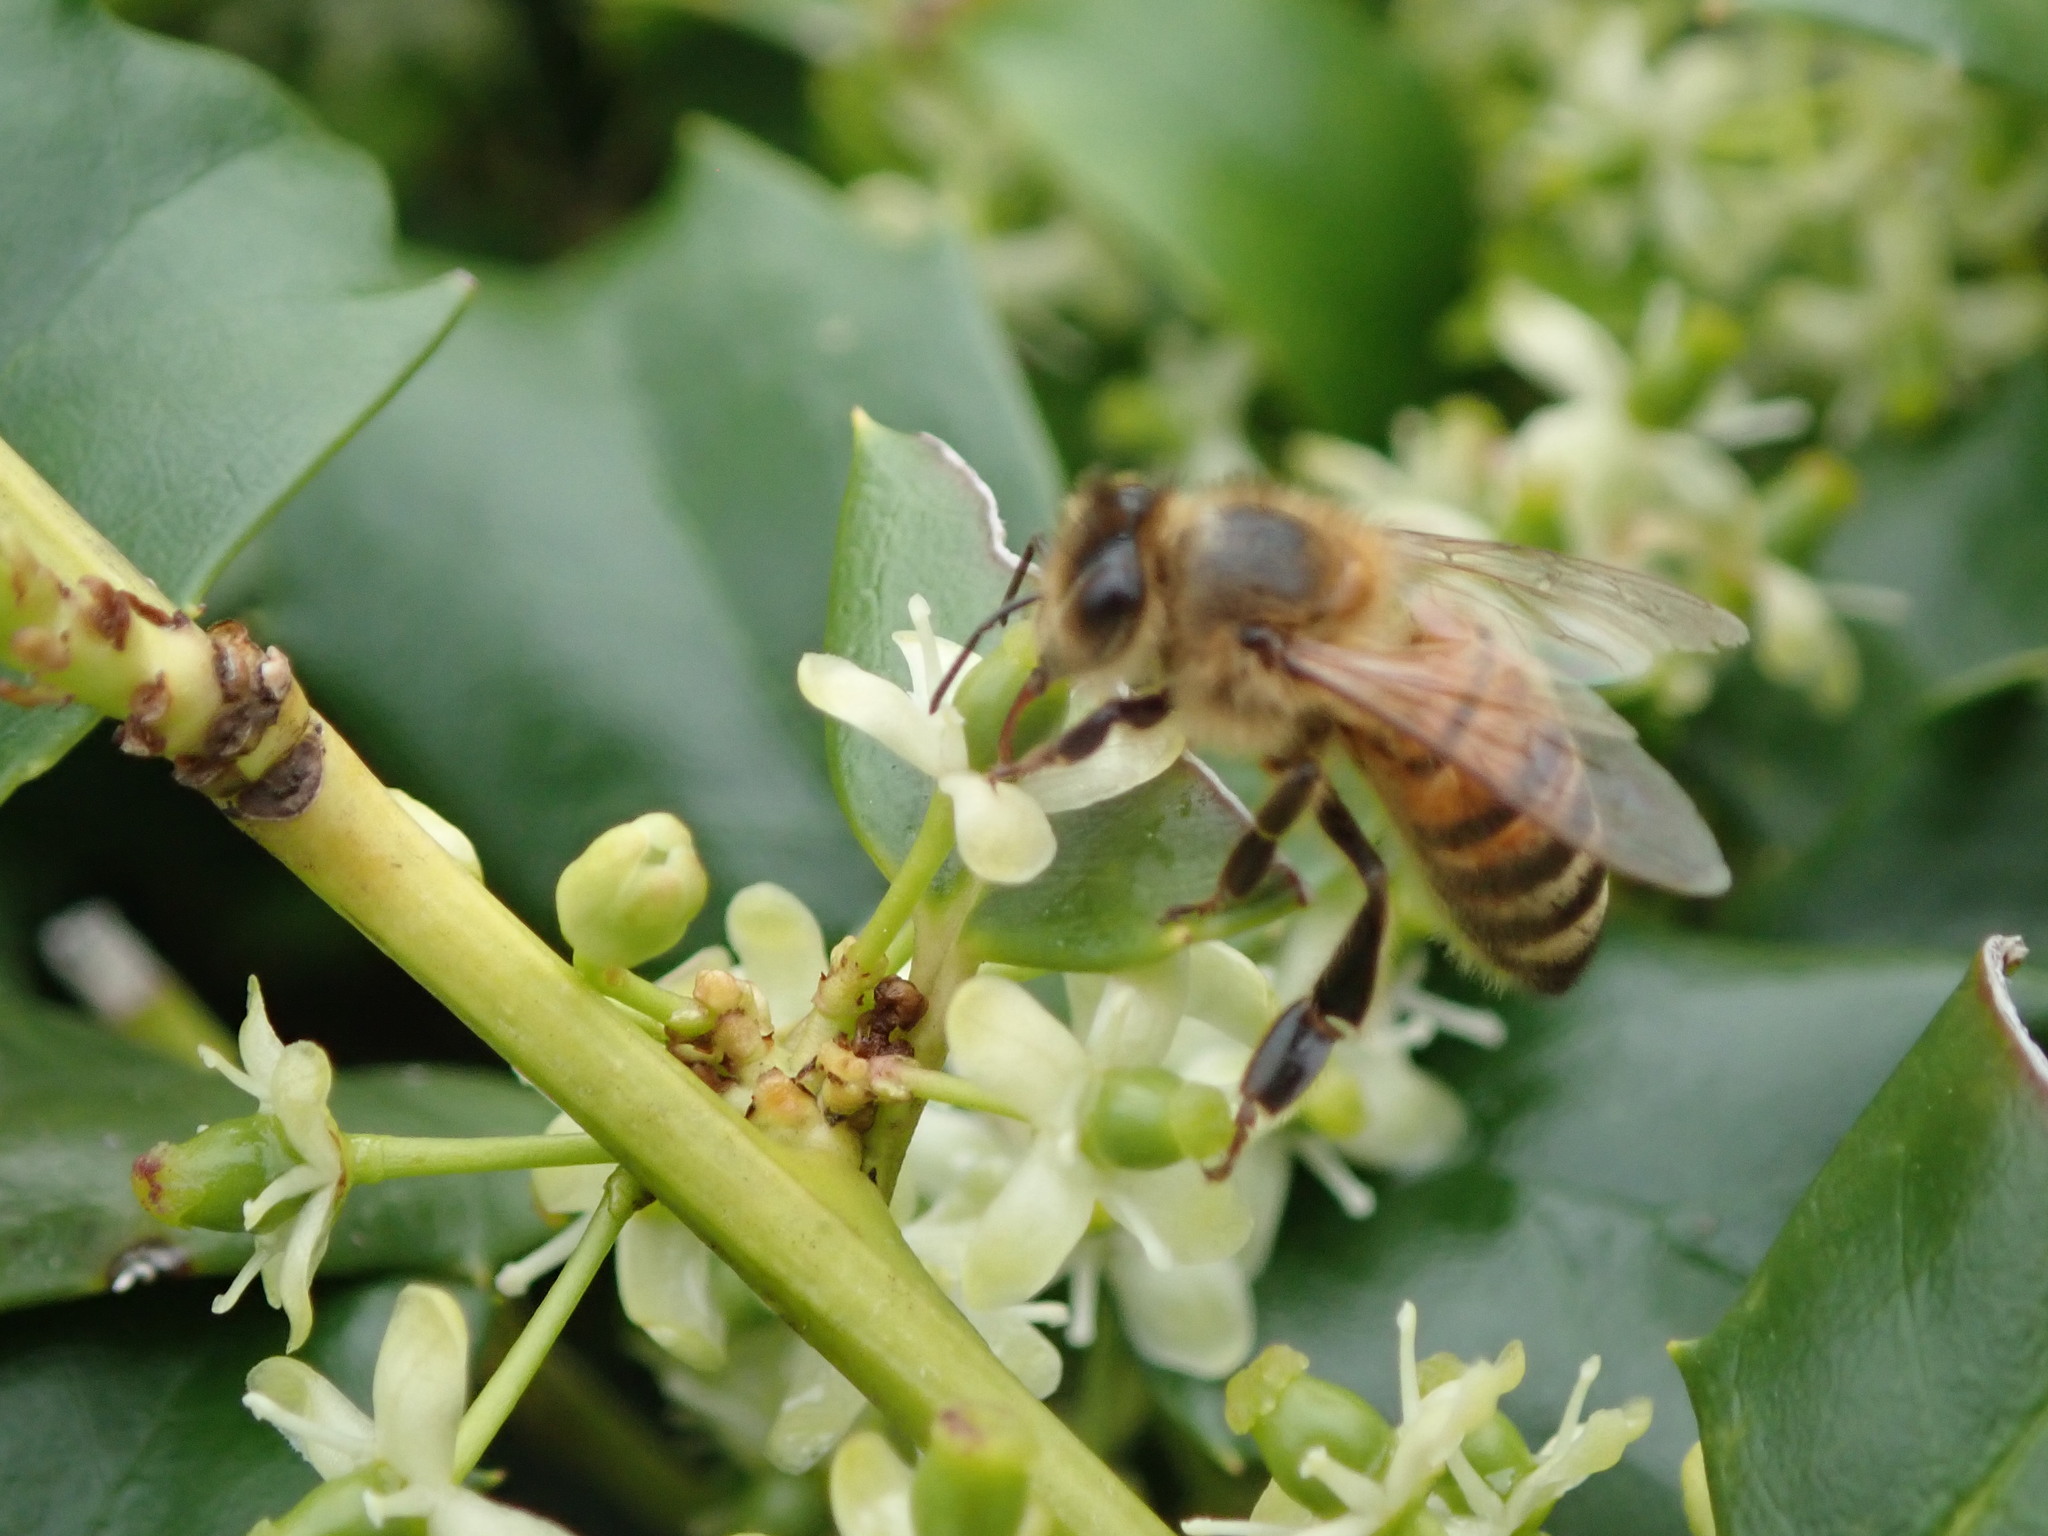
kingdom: Animalia
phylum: Arthropoda
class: Insecta
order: Hymenoptera
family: Apidae
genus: Apis
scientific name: Apis mellifera
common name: Honey bee
